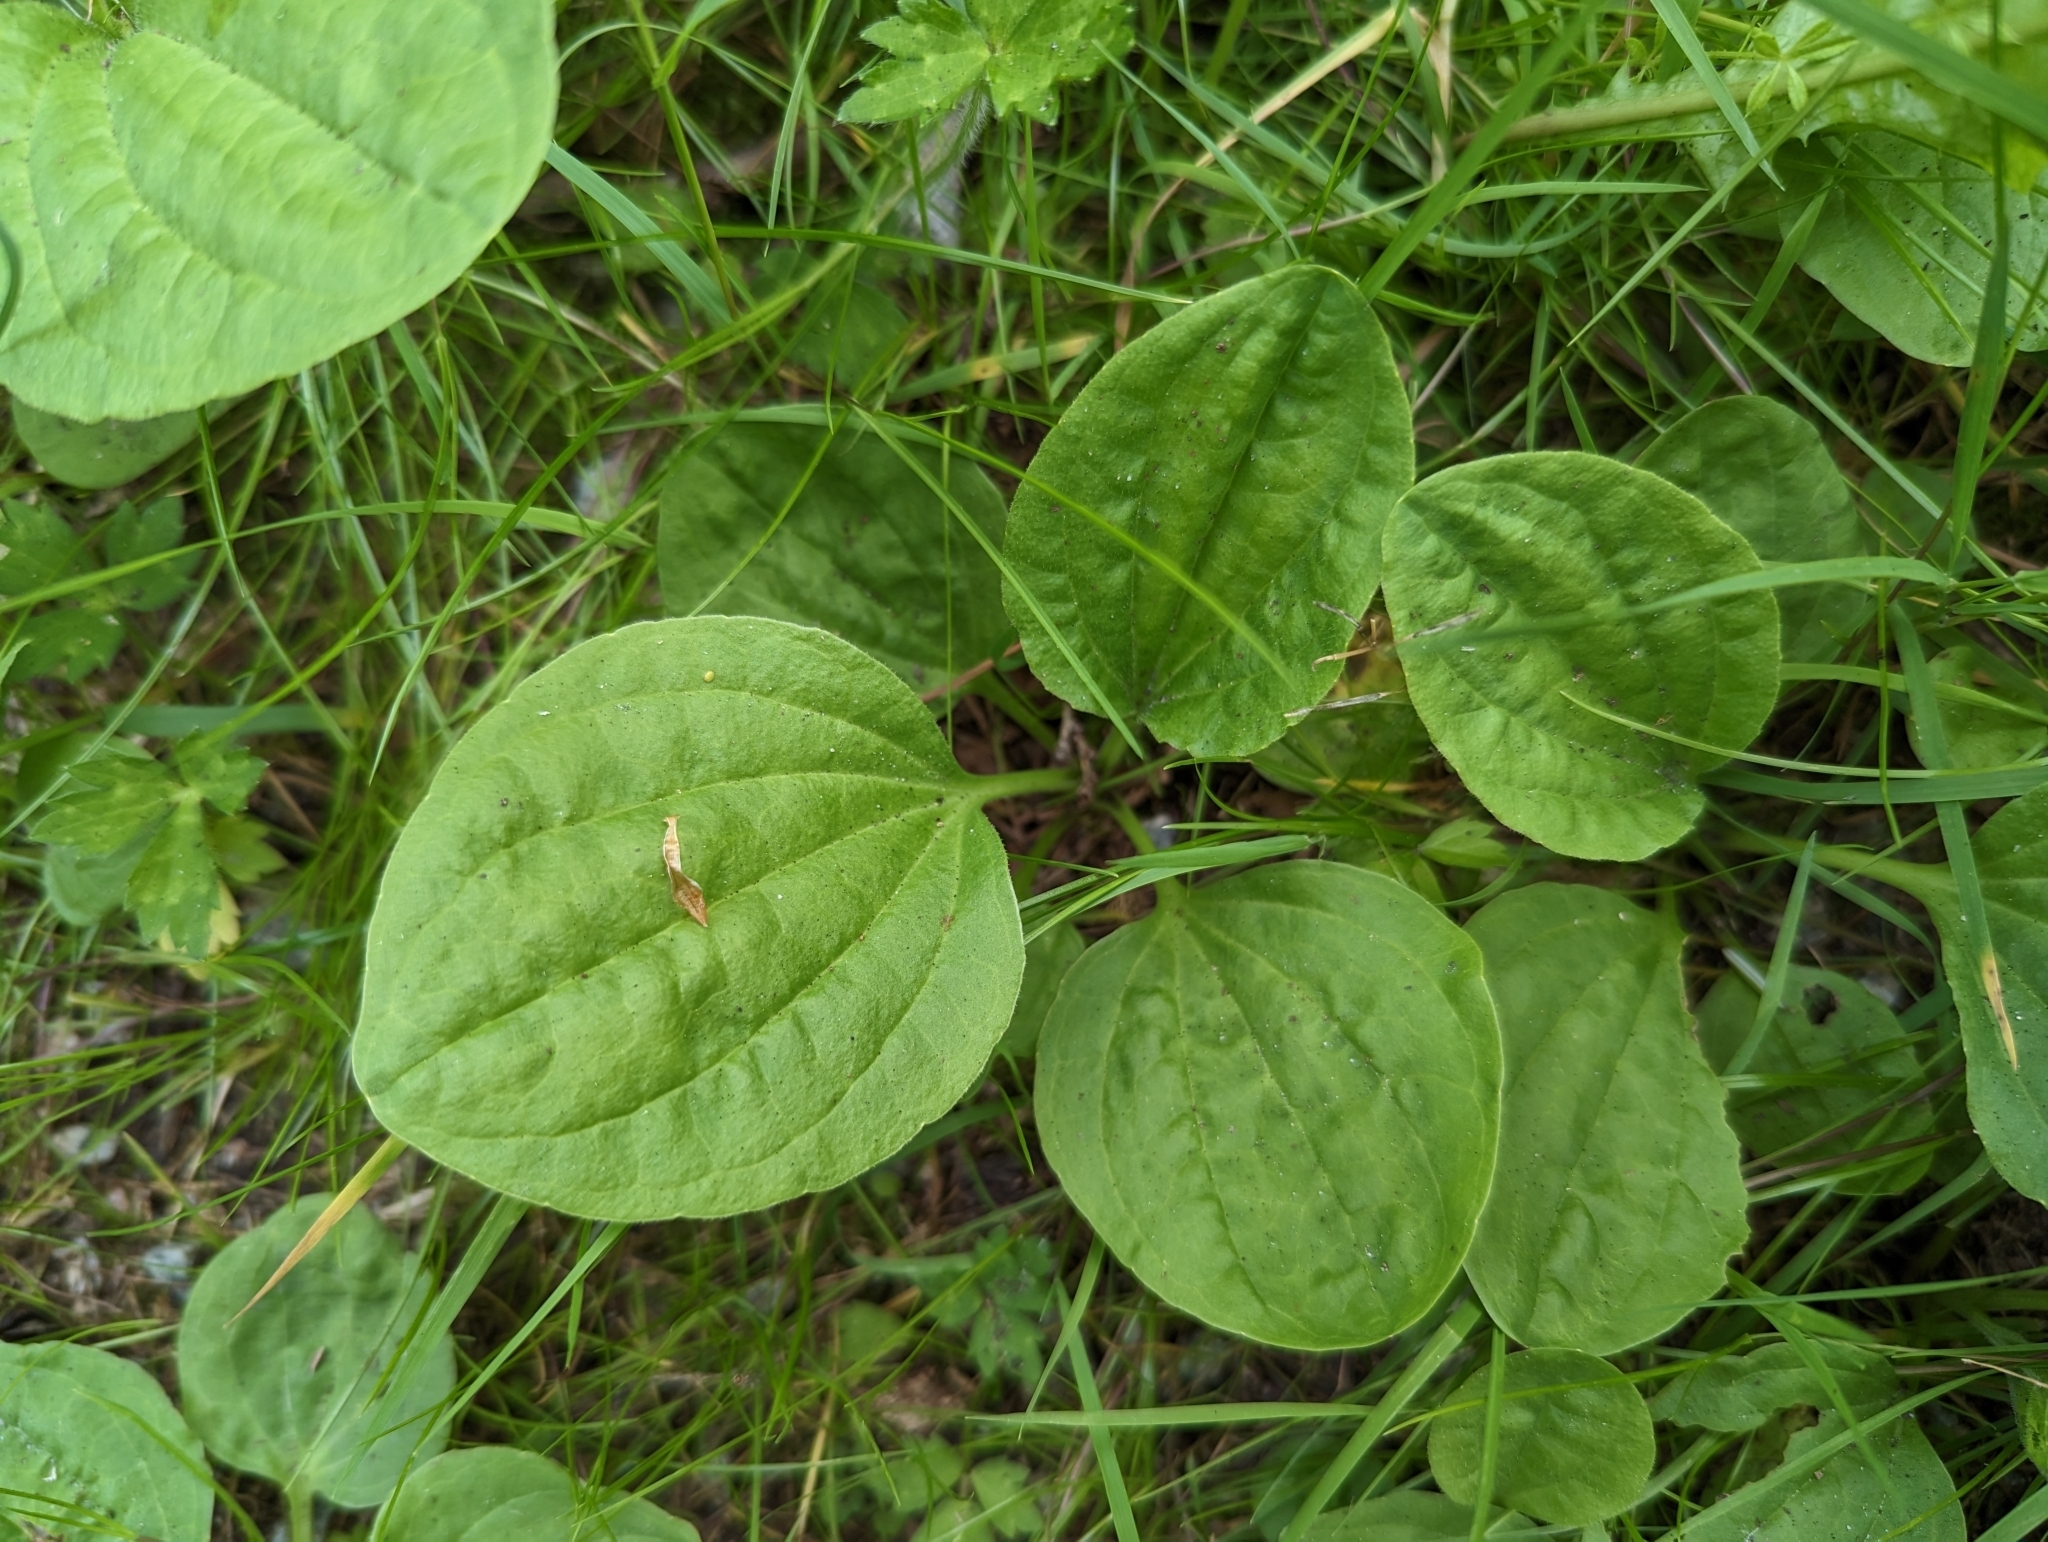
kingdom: Plantae
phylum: Tracheophyta
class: Magnoliopsida
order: Lamiales
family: Plantaginaceae
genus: Plantago
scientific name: Plantago major
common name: Common plantain
